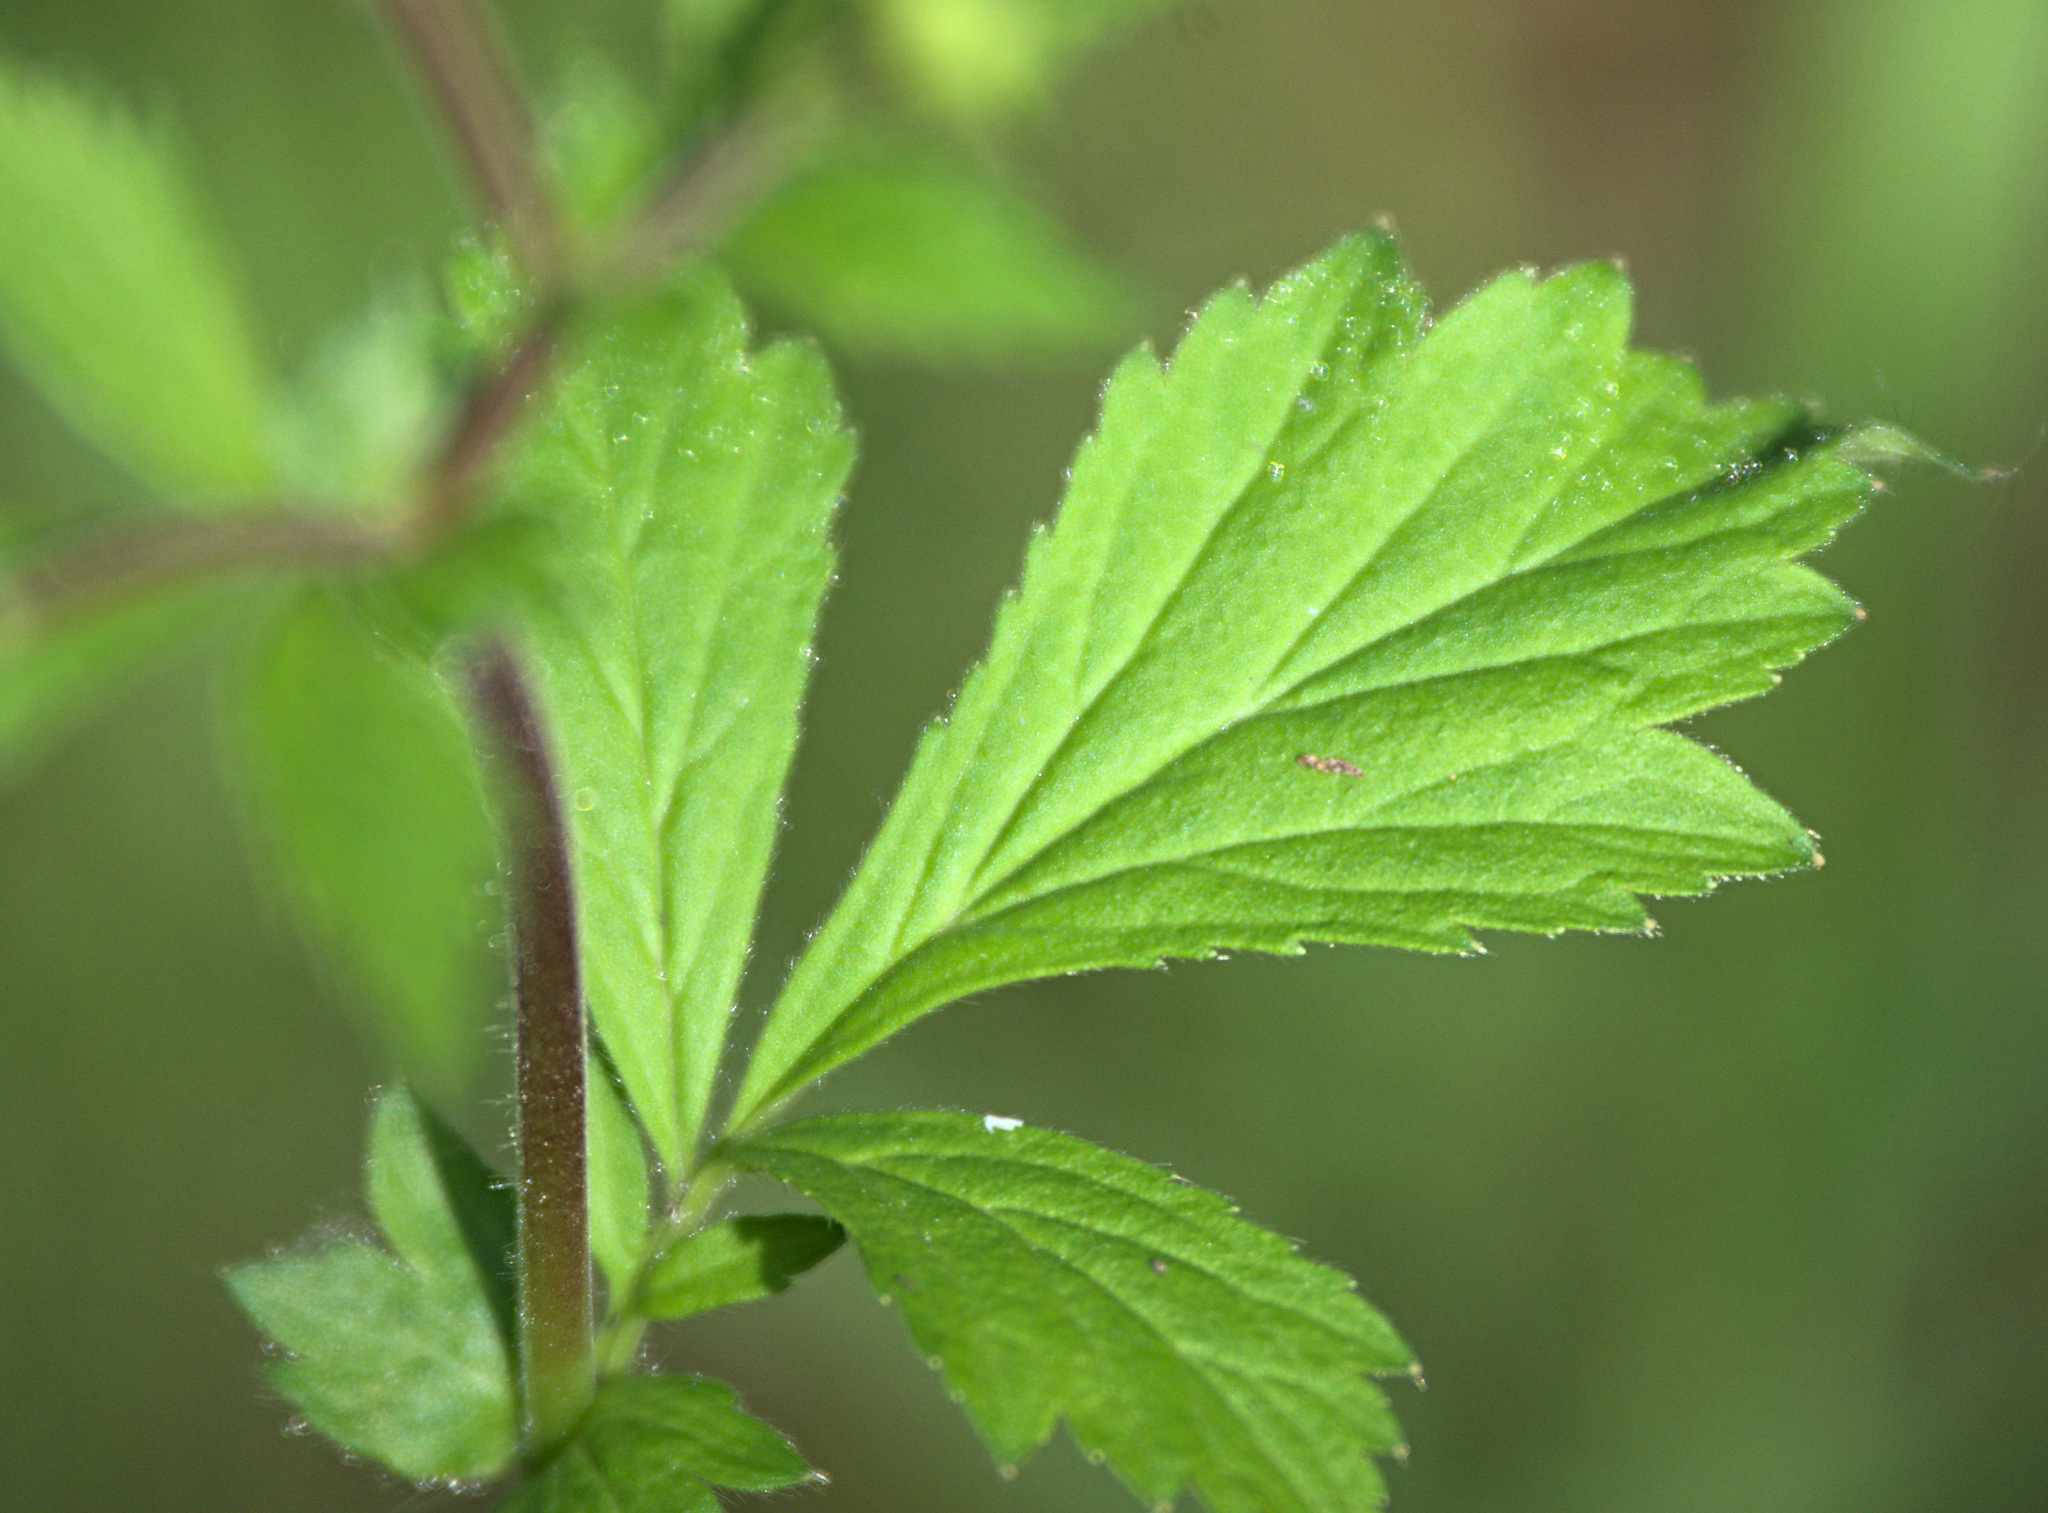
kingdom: Plantae
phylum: Tracheophyta
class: Magnoliopsida
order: Rosales
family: Rosaceae
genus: Geum
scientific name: Geum aleppicum
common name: Yellow avens
